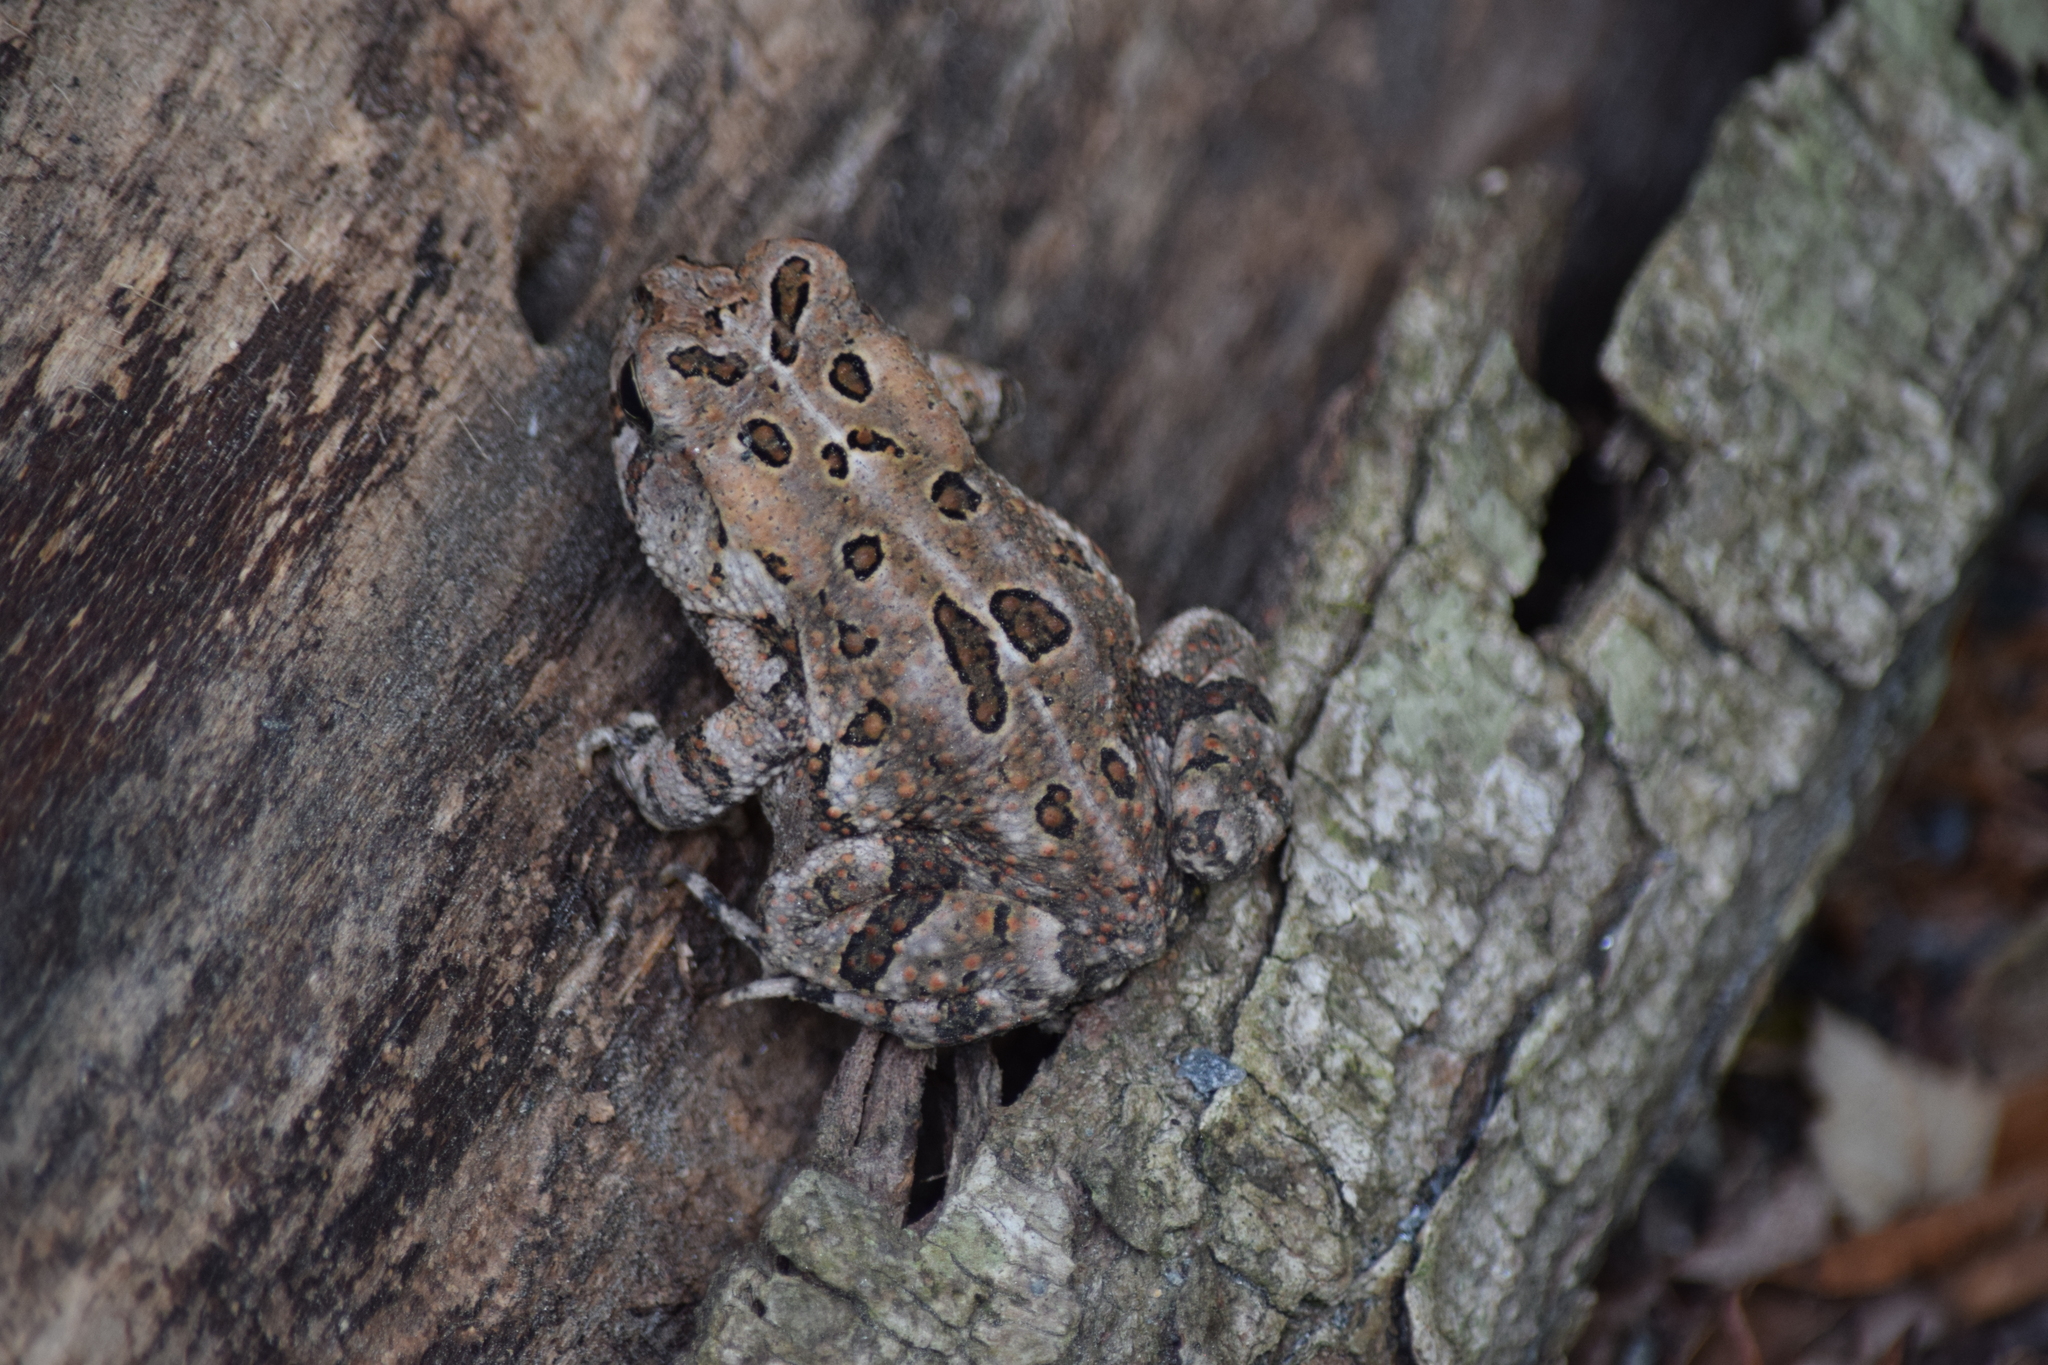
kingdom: Animalia
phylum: Chordata
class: Amphibia
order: Anura
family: Bufonidae
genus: Anaxyrus
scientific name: Anaxyrus fowleri
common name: Fowler's toad
